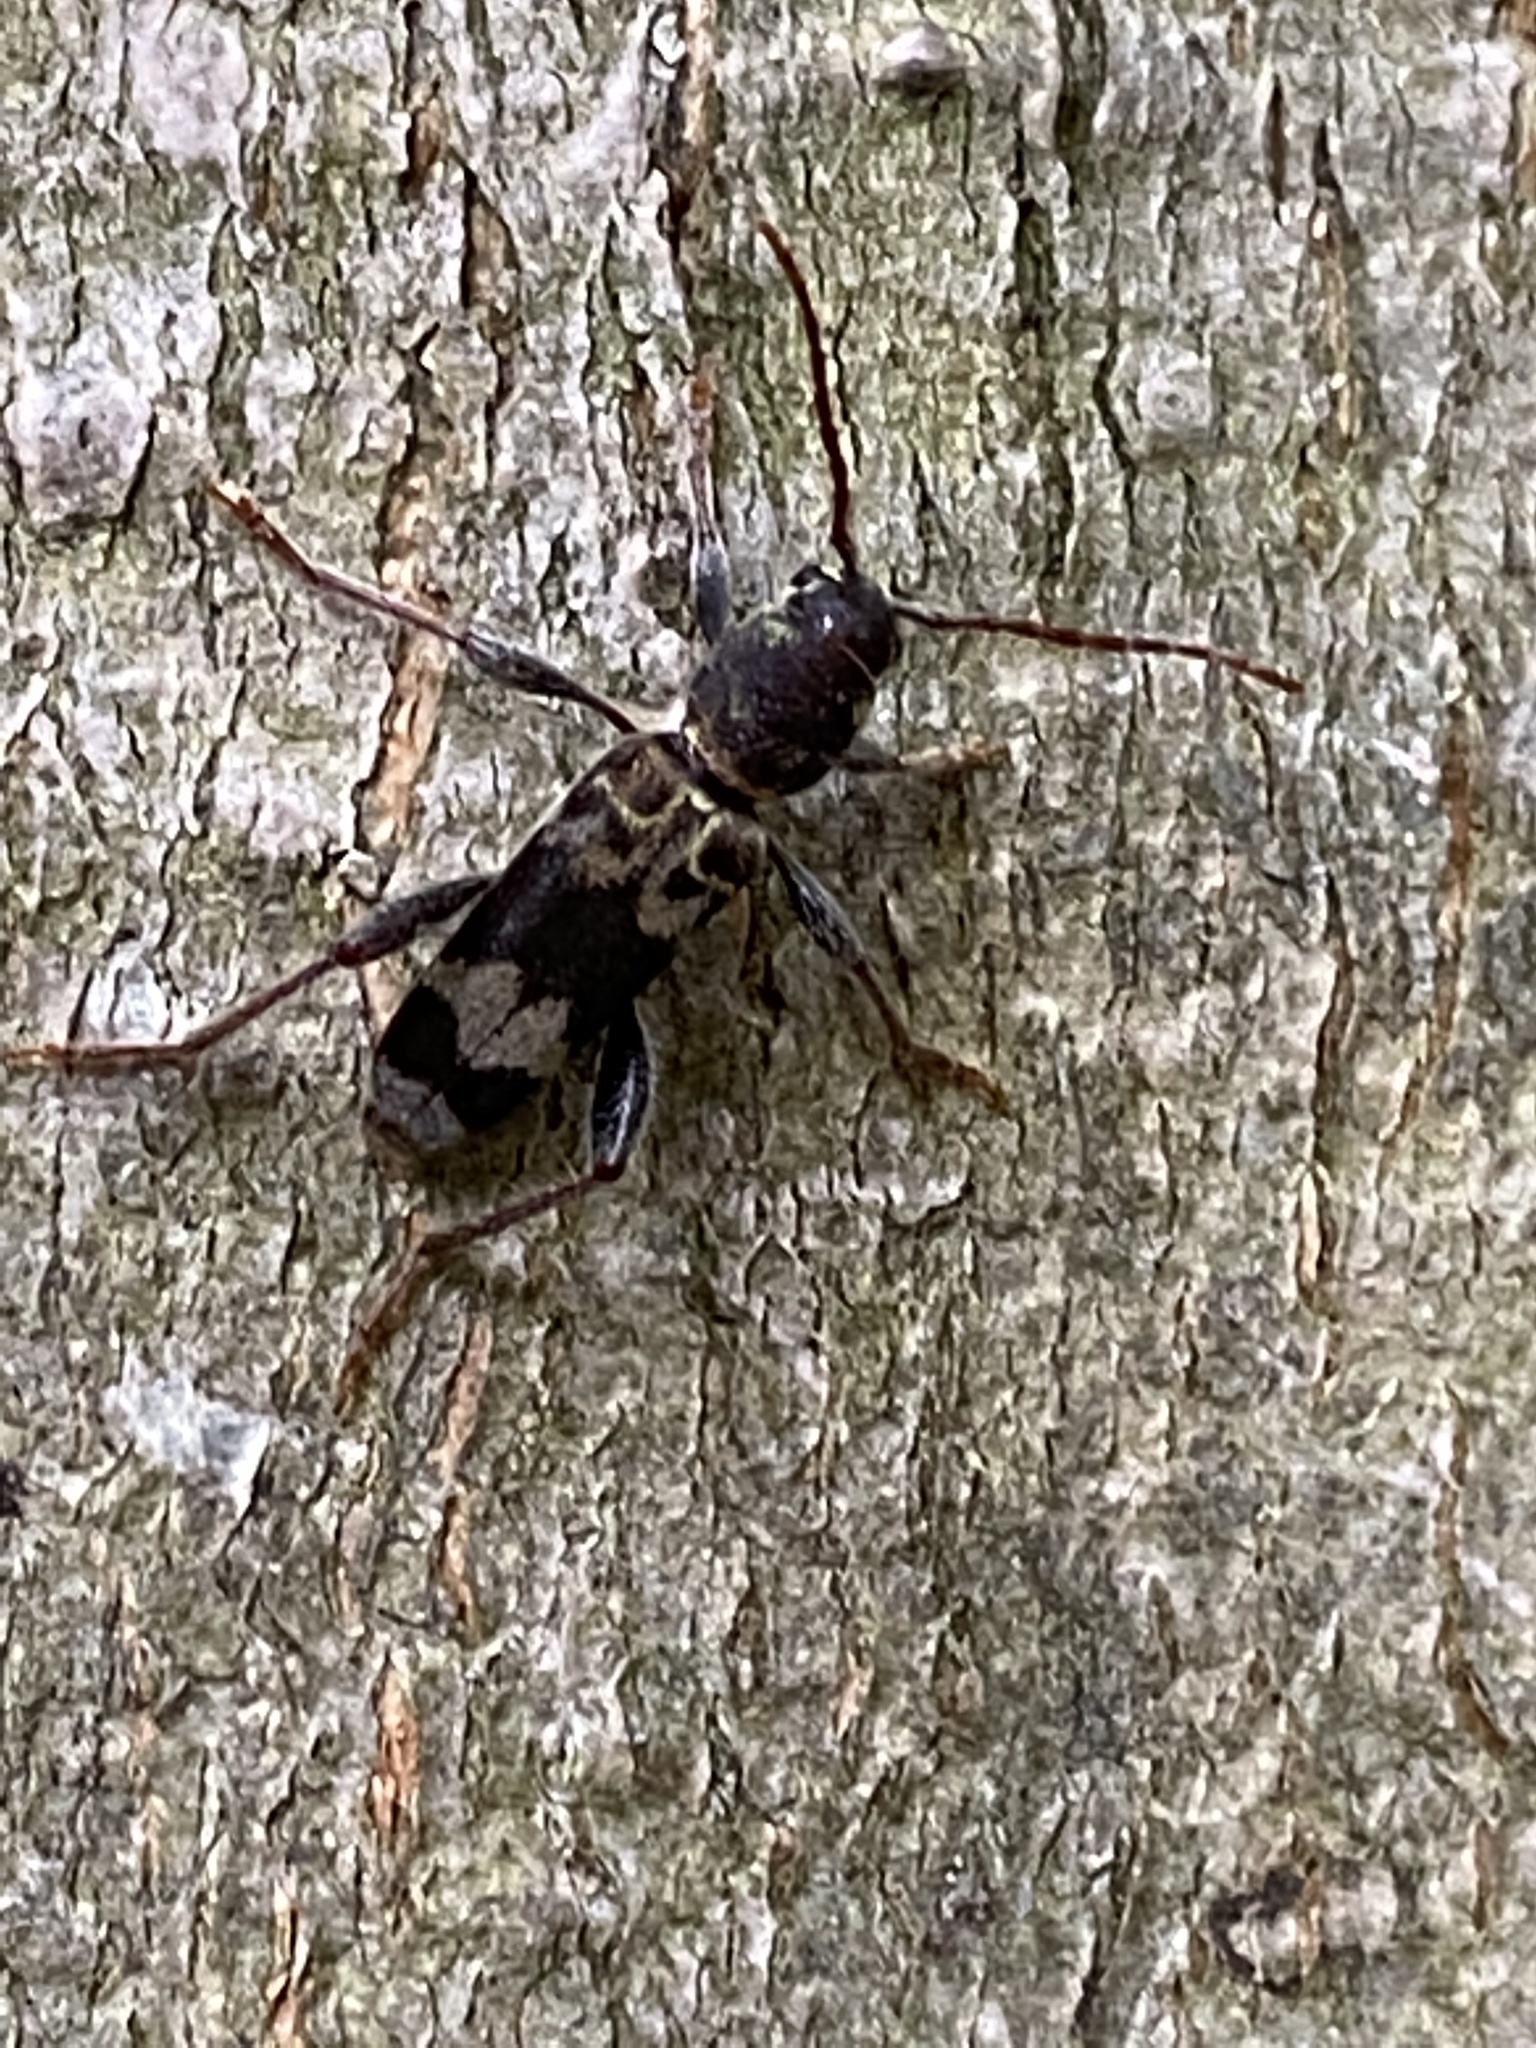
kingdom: Animalia
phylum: Arthropoda
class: Insecta
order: Coleoptera
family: Cerambycidae
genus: Xylotrechus
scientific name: Xylotrechus colonus
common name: Long-horned beetle
